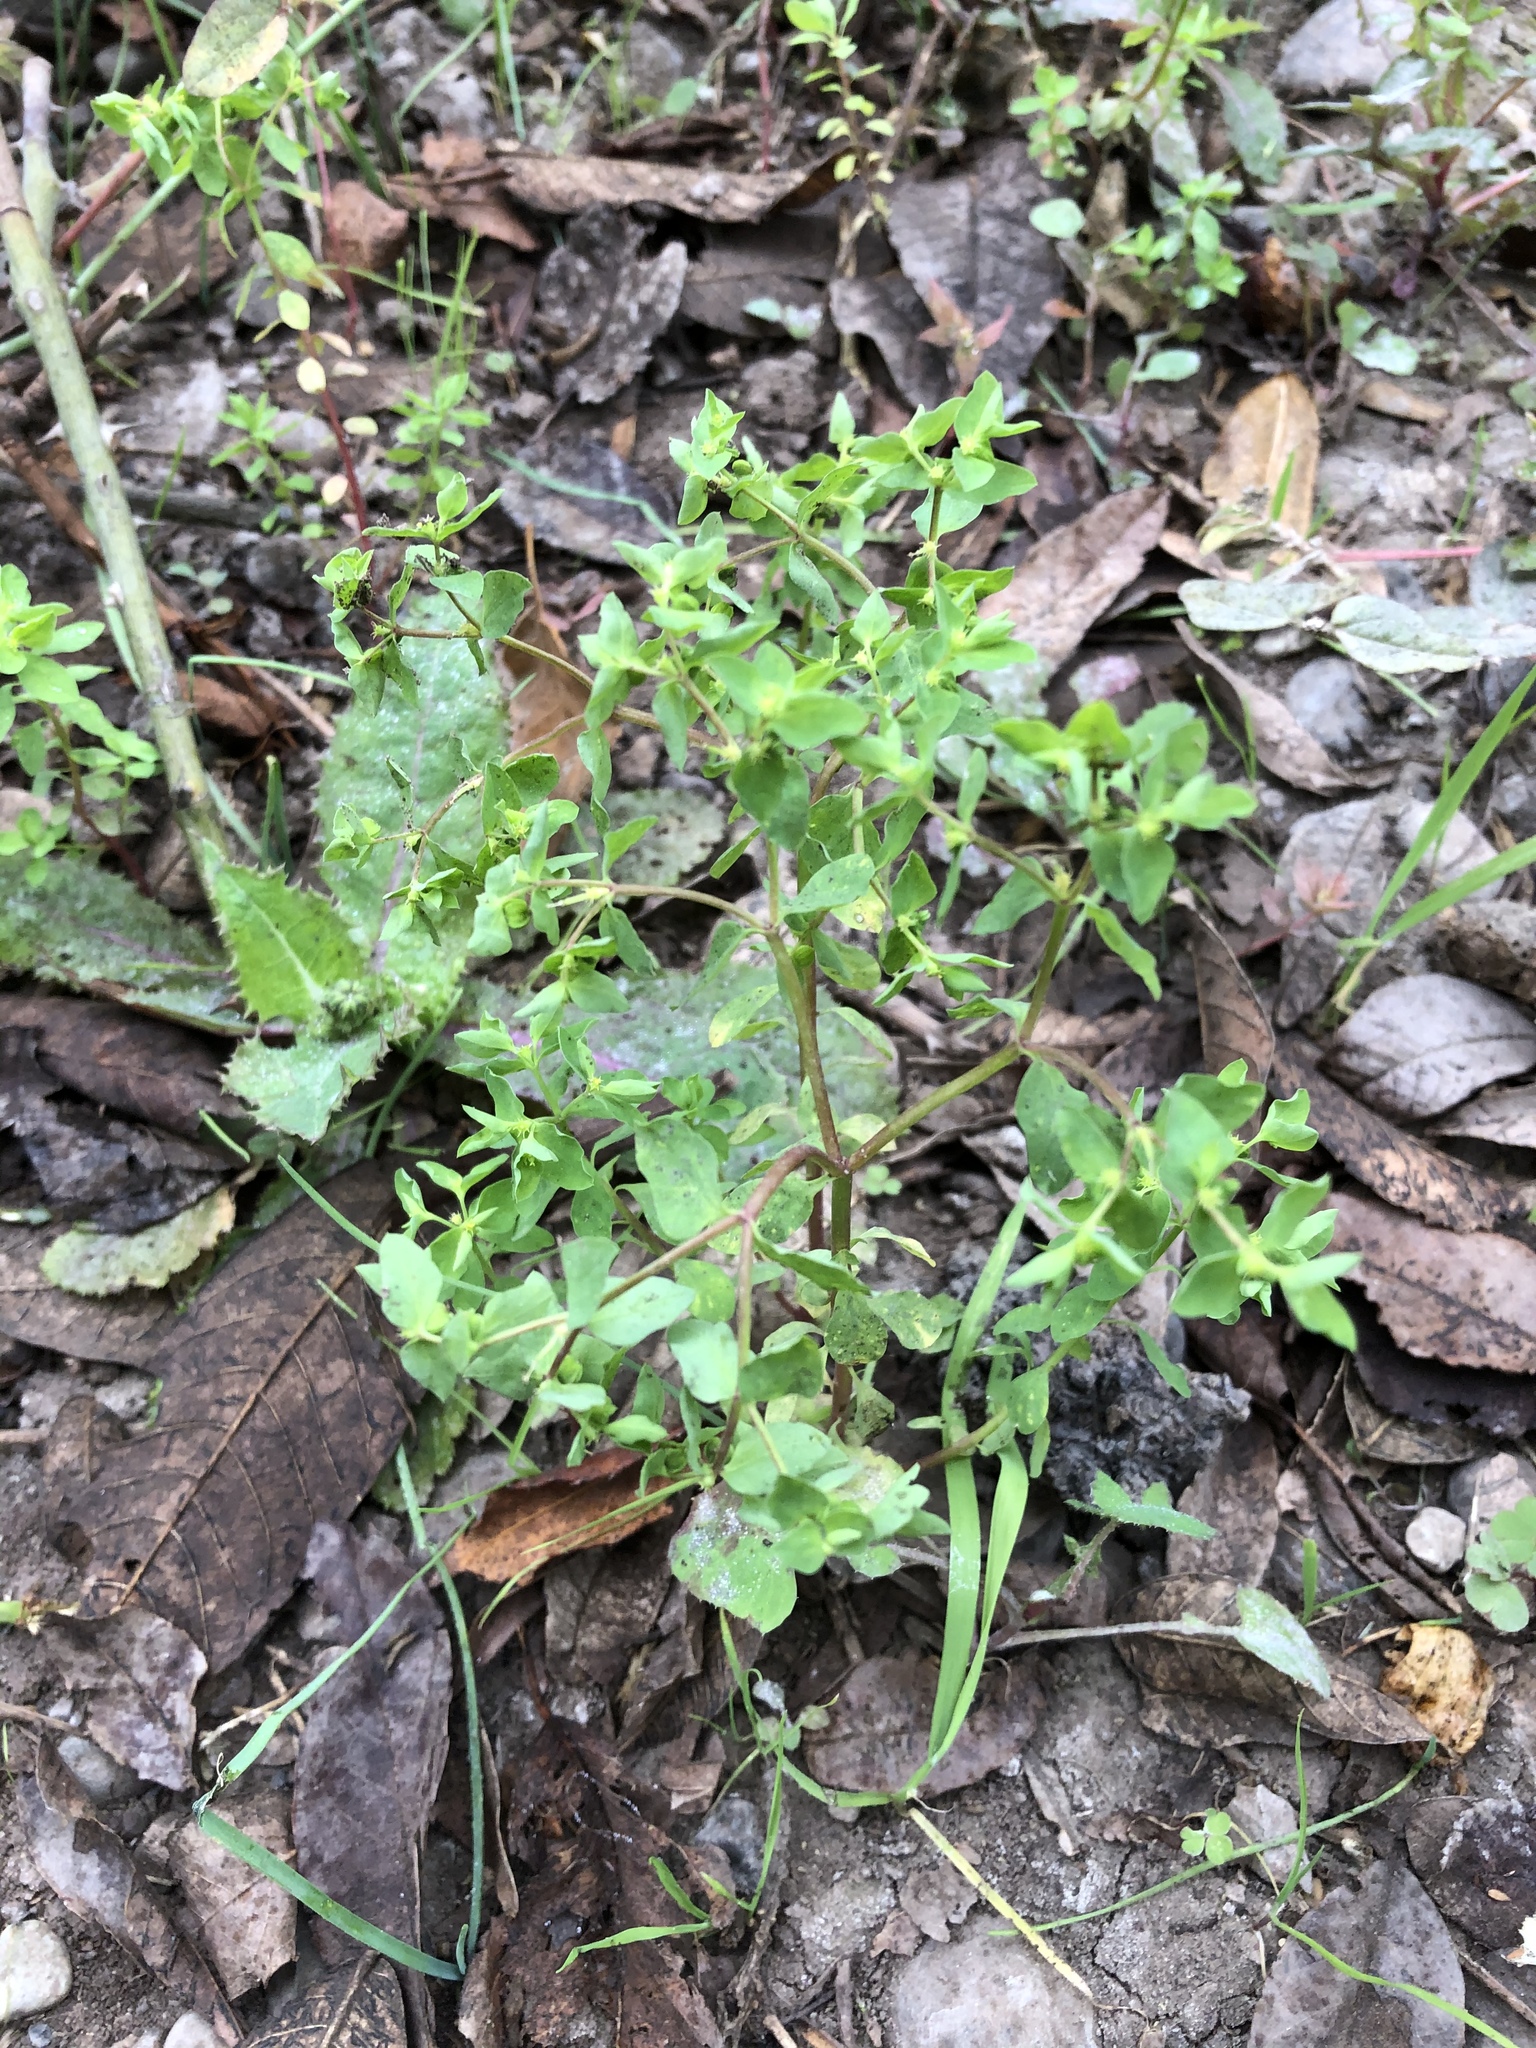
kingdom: Plantae
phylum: Tracheophyta
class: Magnoliopsida
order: Malpighiales
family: Euphorbiaceae
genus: Euphorbia
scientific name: Euphorbia peplus
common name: Petty spurge
